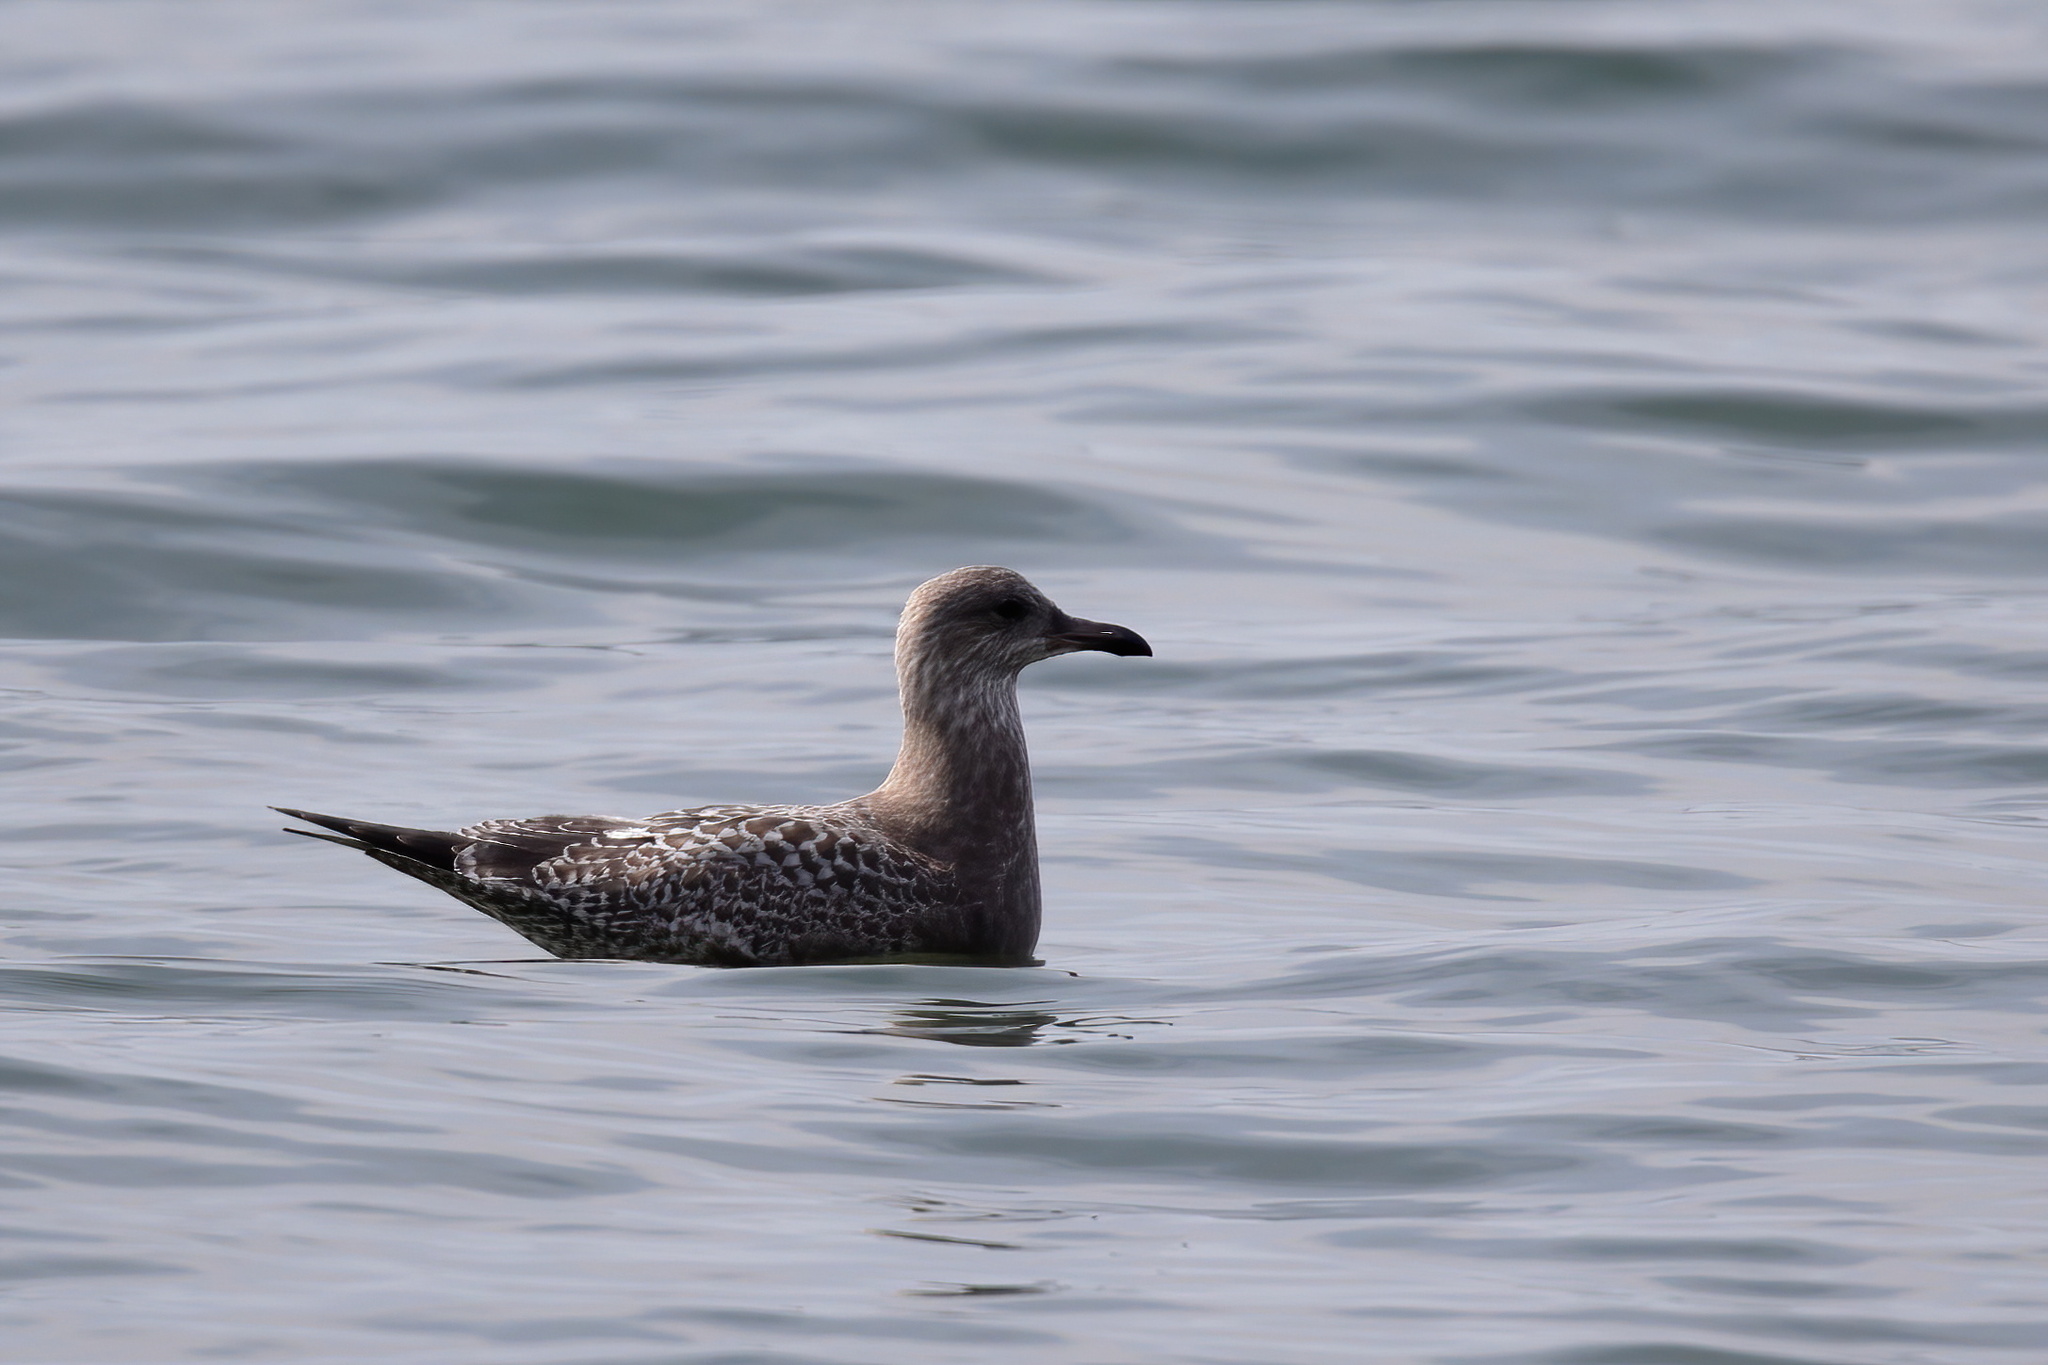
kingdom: Animalia
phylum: Chordata
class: Aves
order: Charadriiformes
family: Laridae
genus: Larus
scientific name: Larus argentatus
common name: Herring gull
